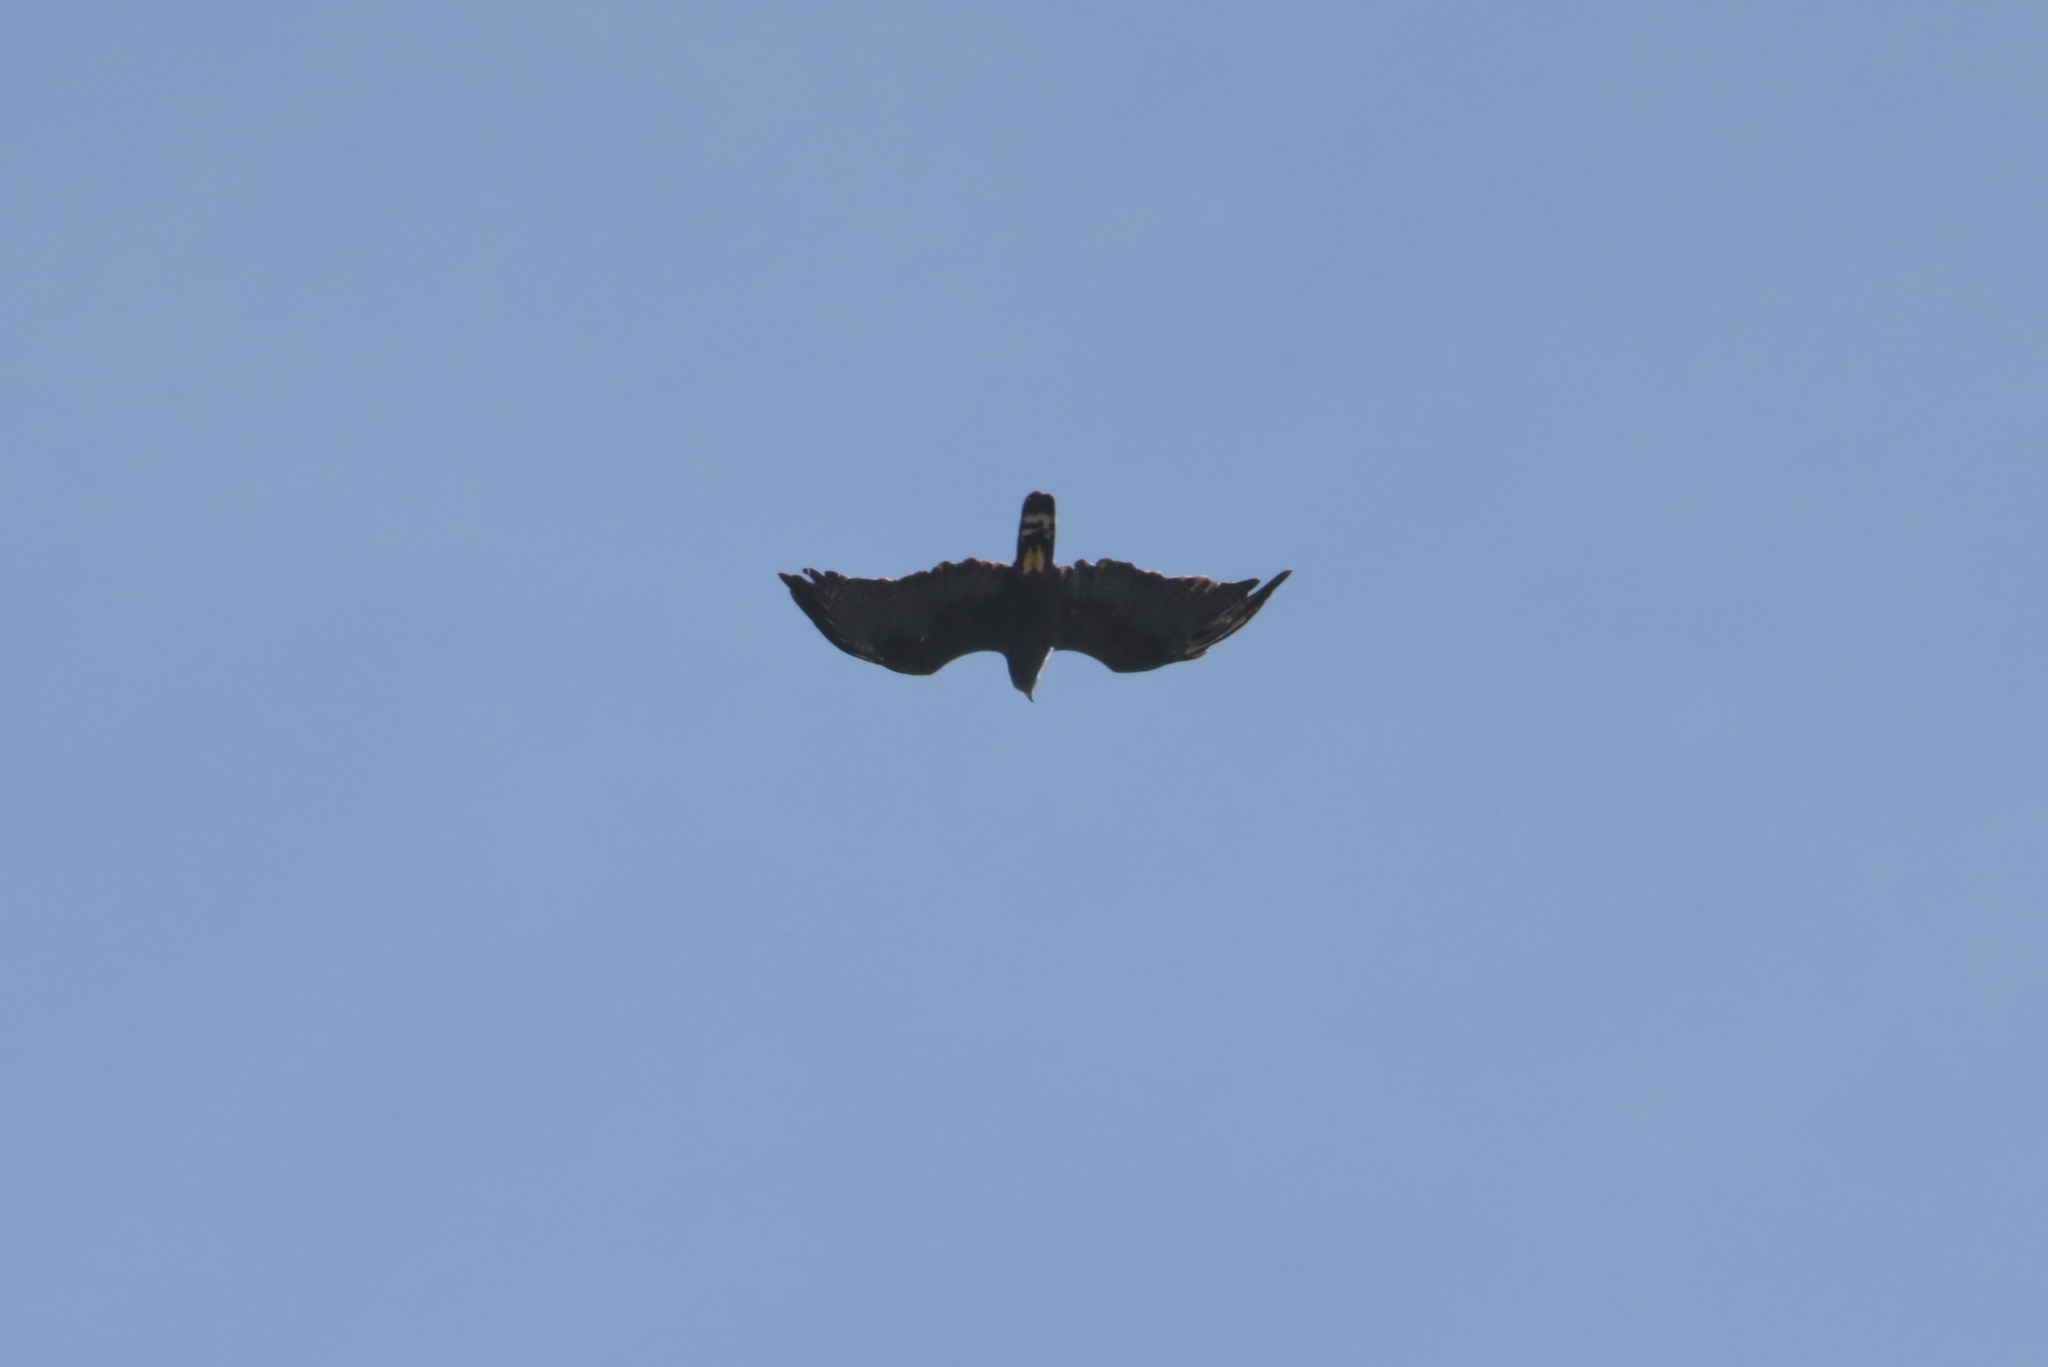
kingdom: Animalia
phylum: Chordata
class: Aves
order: Accipitriformes
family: Accipitridae
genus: Buteo
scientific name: Buteo albonotatus
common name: Zone-tailed hawk
